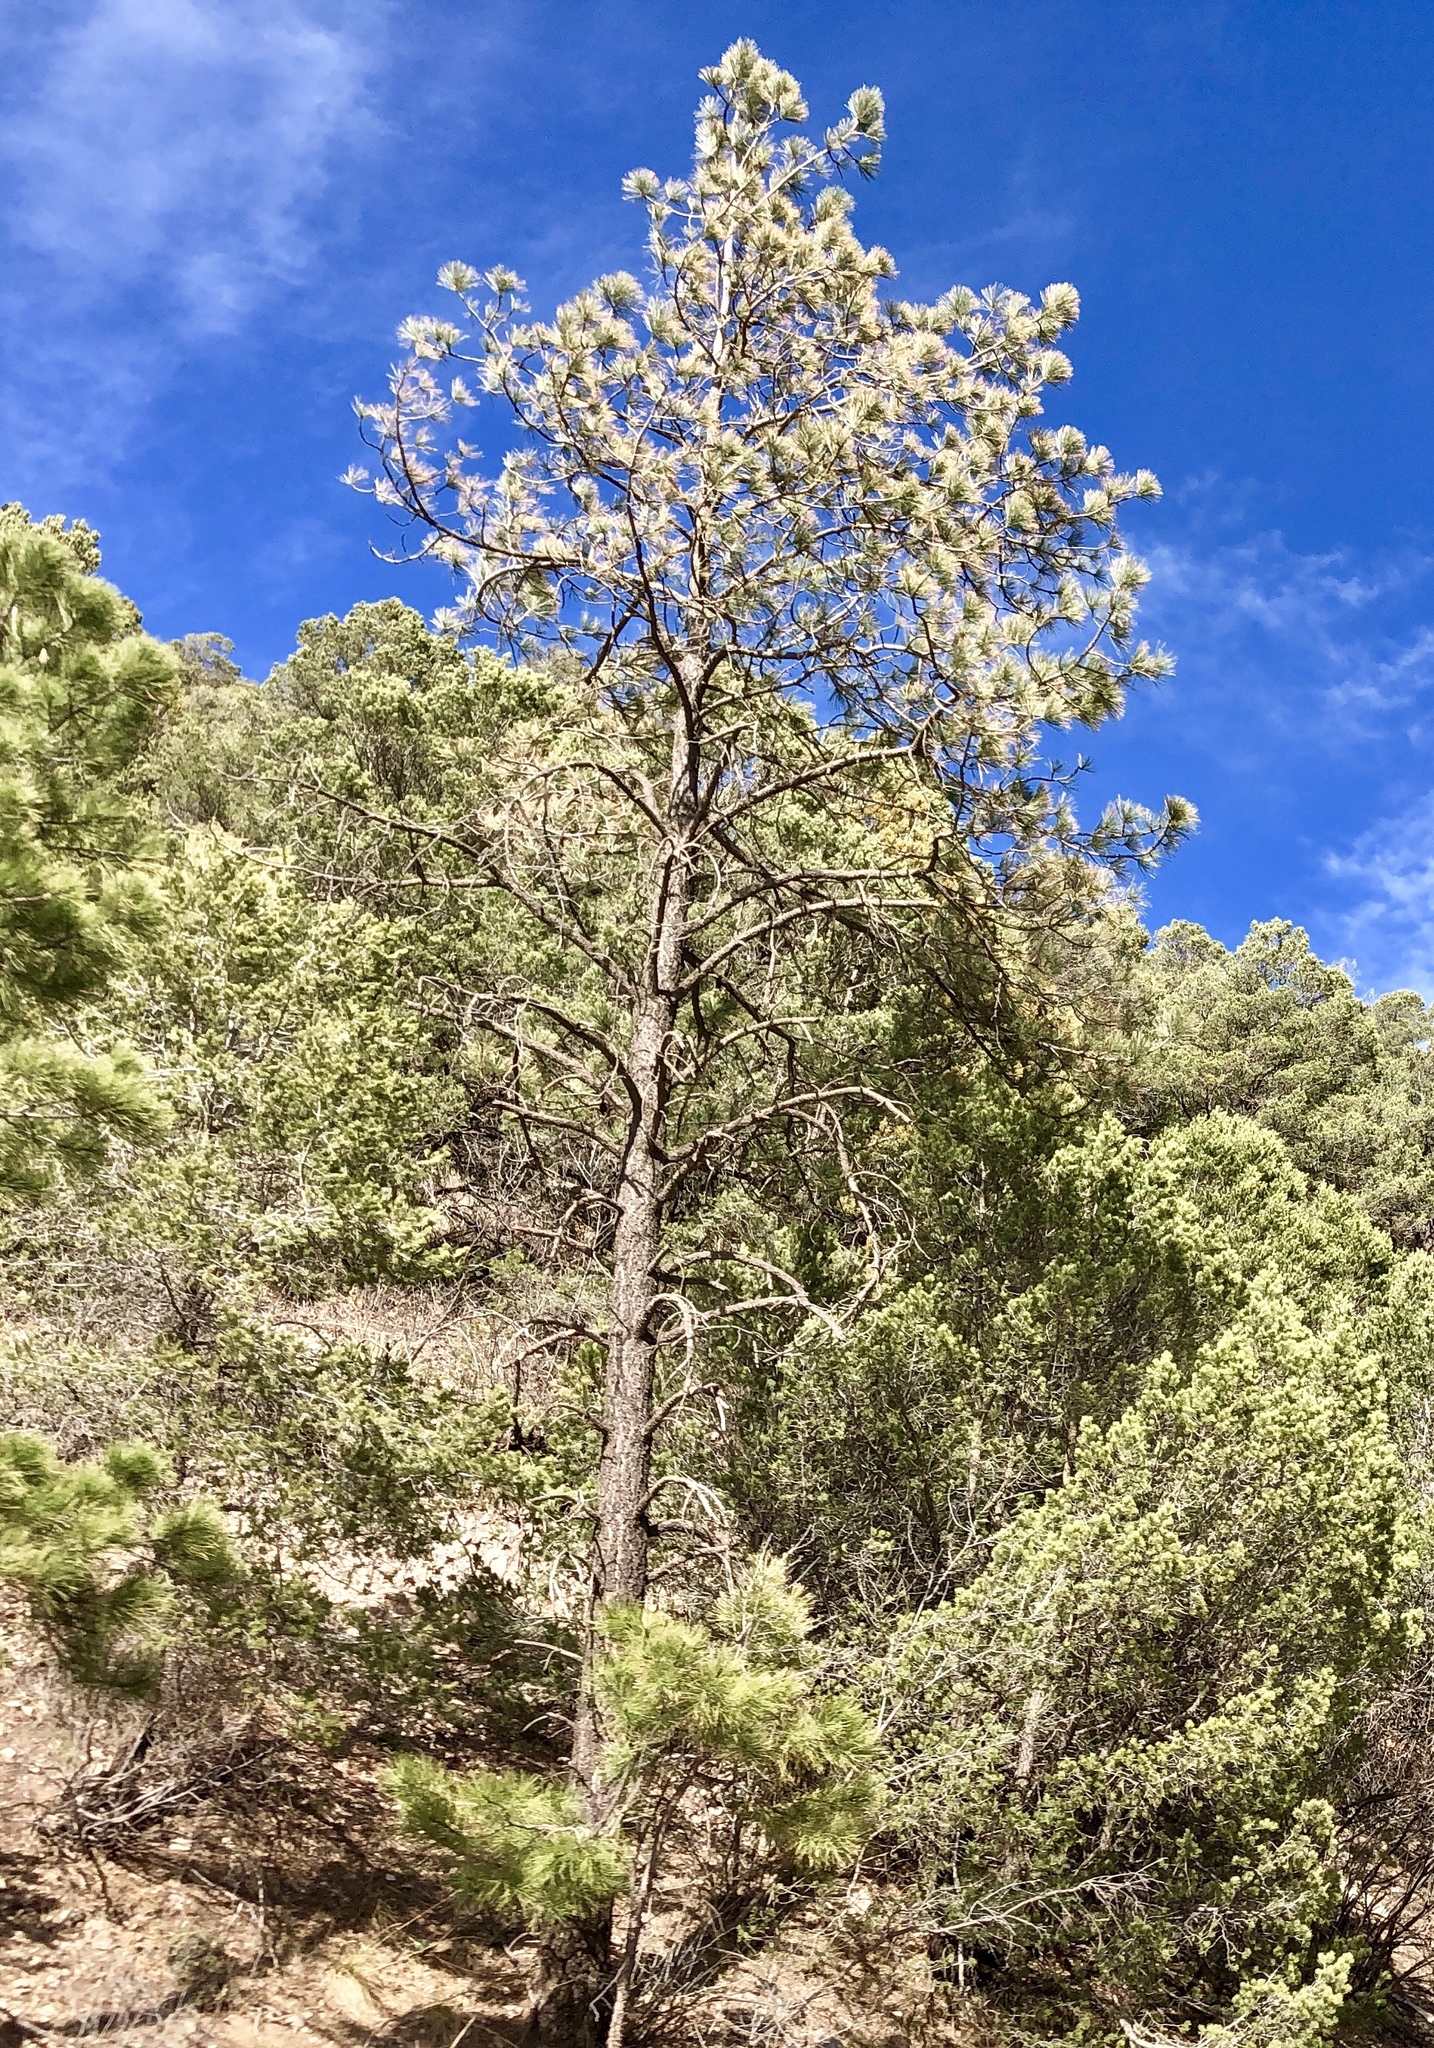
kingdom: Plantae
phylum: Tracheophyta
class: Pinopsida
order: Pinales
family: Pinaceae
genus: Pinus
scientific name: Pinus ponderosa
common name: Western yellow-pine
